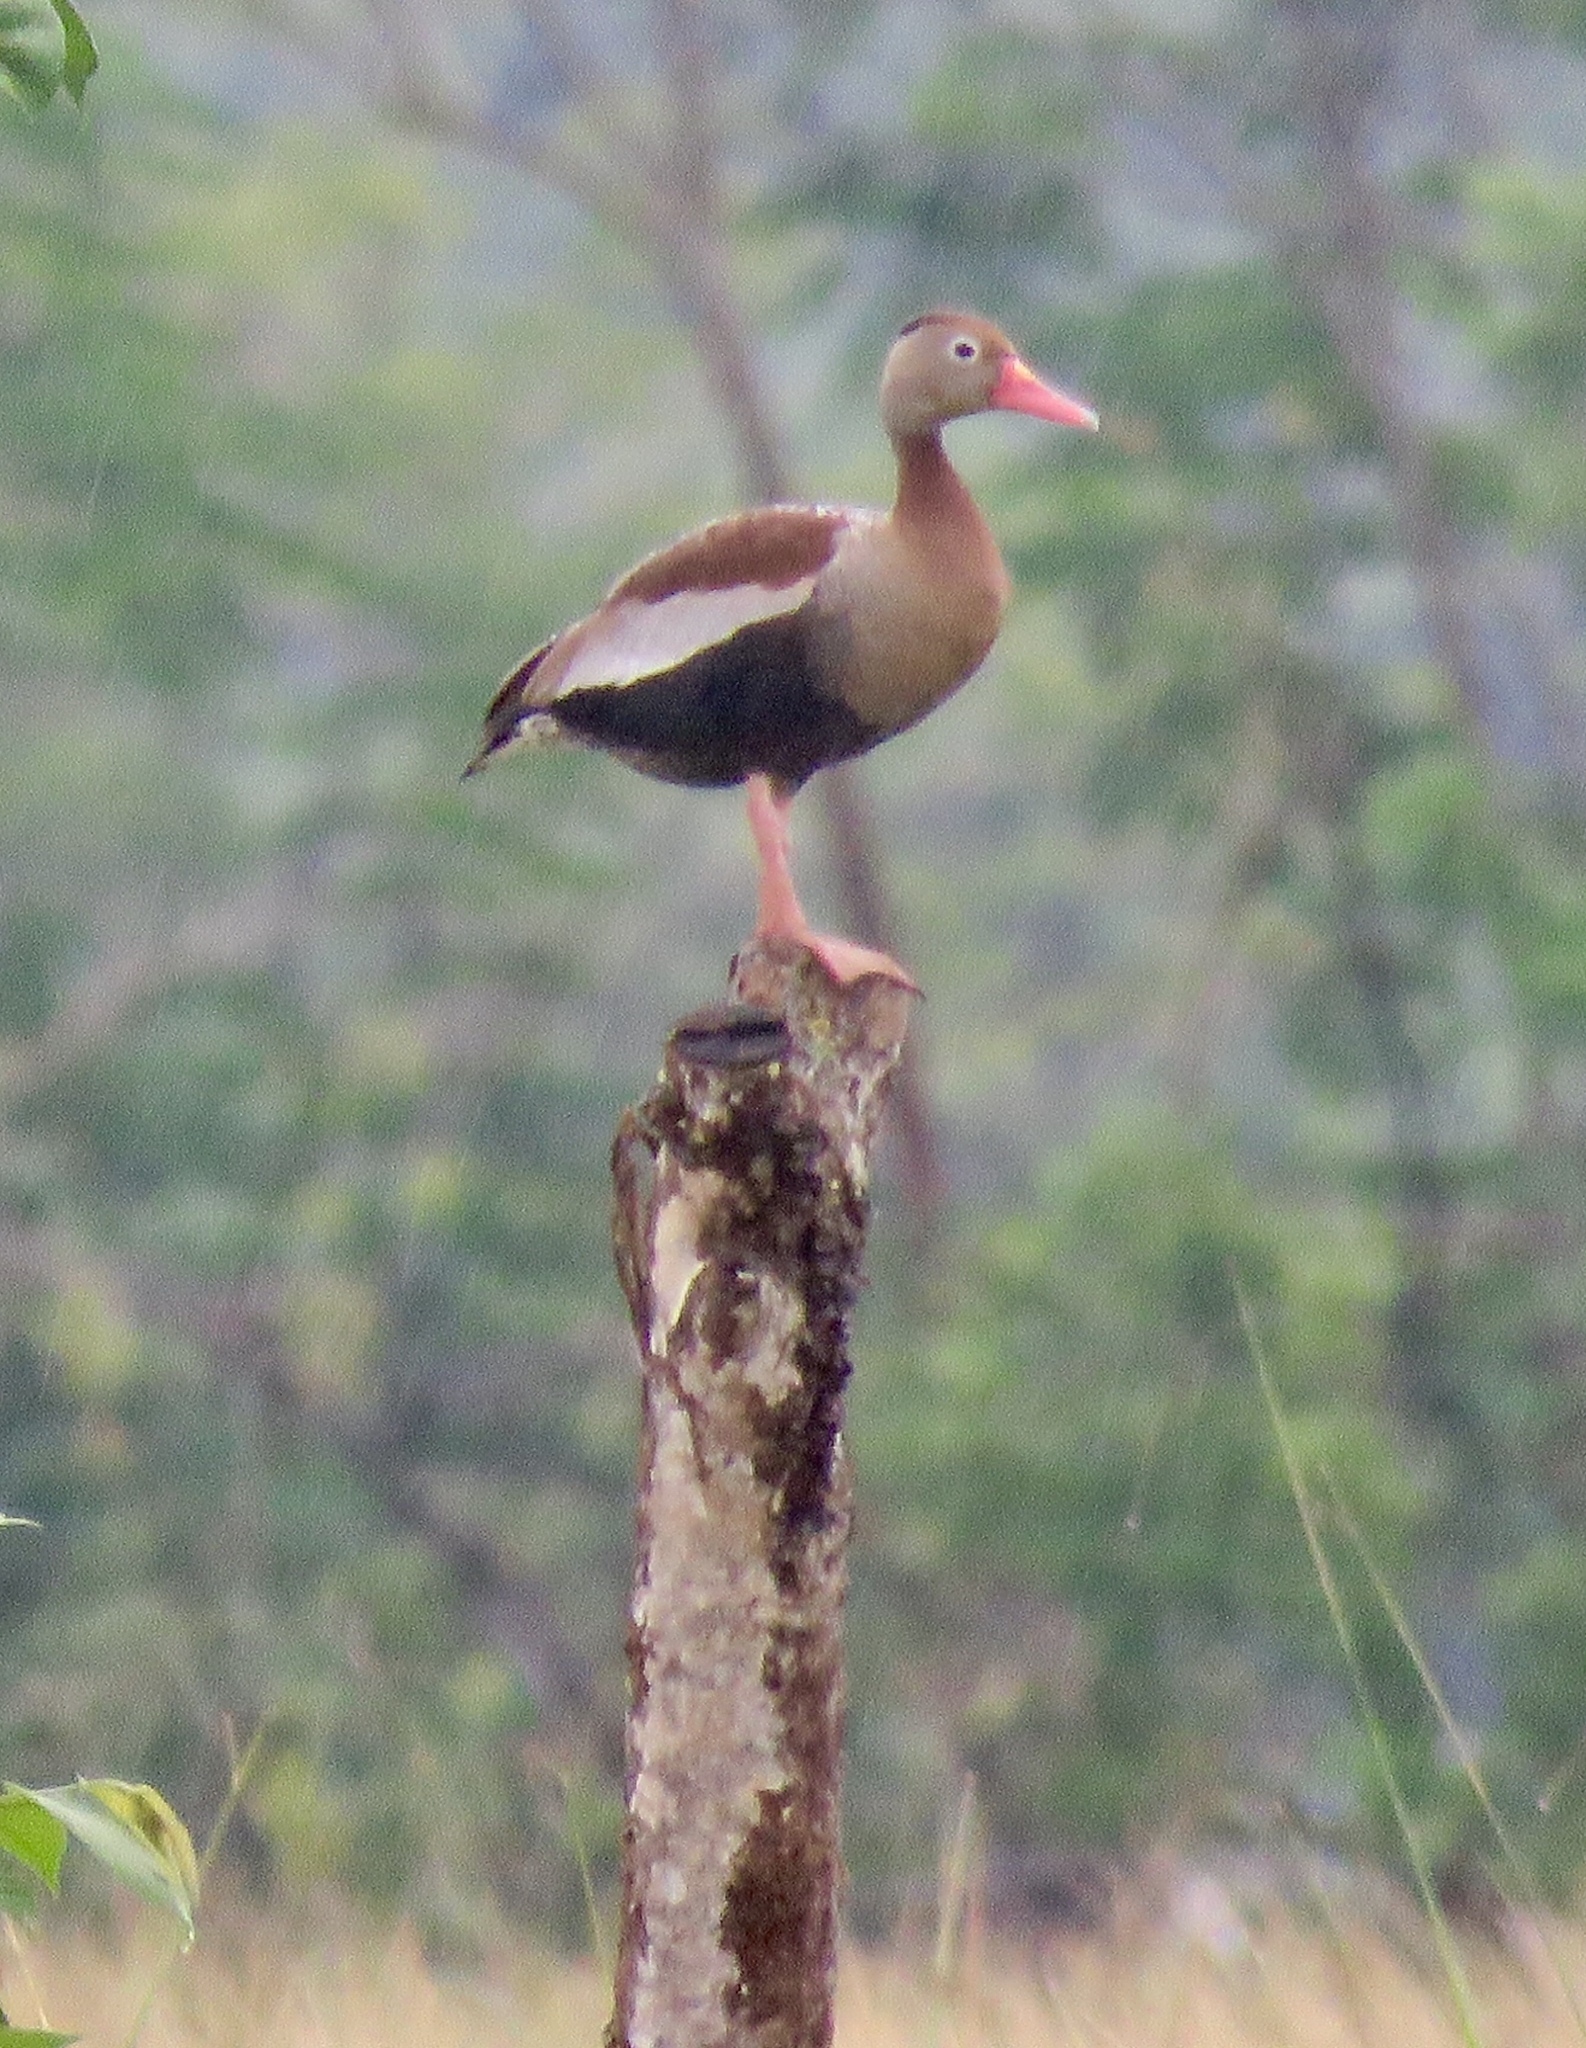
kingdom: Animalia
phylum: Chordata
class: Aves
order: Anseriformes
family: Anatidae
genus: Dendrocygna
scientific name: Dendrocygna autumnalis
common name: Black-bellied whistling duck
